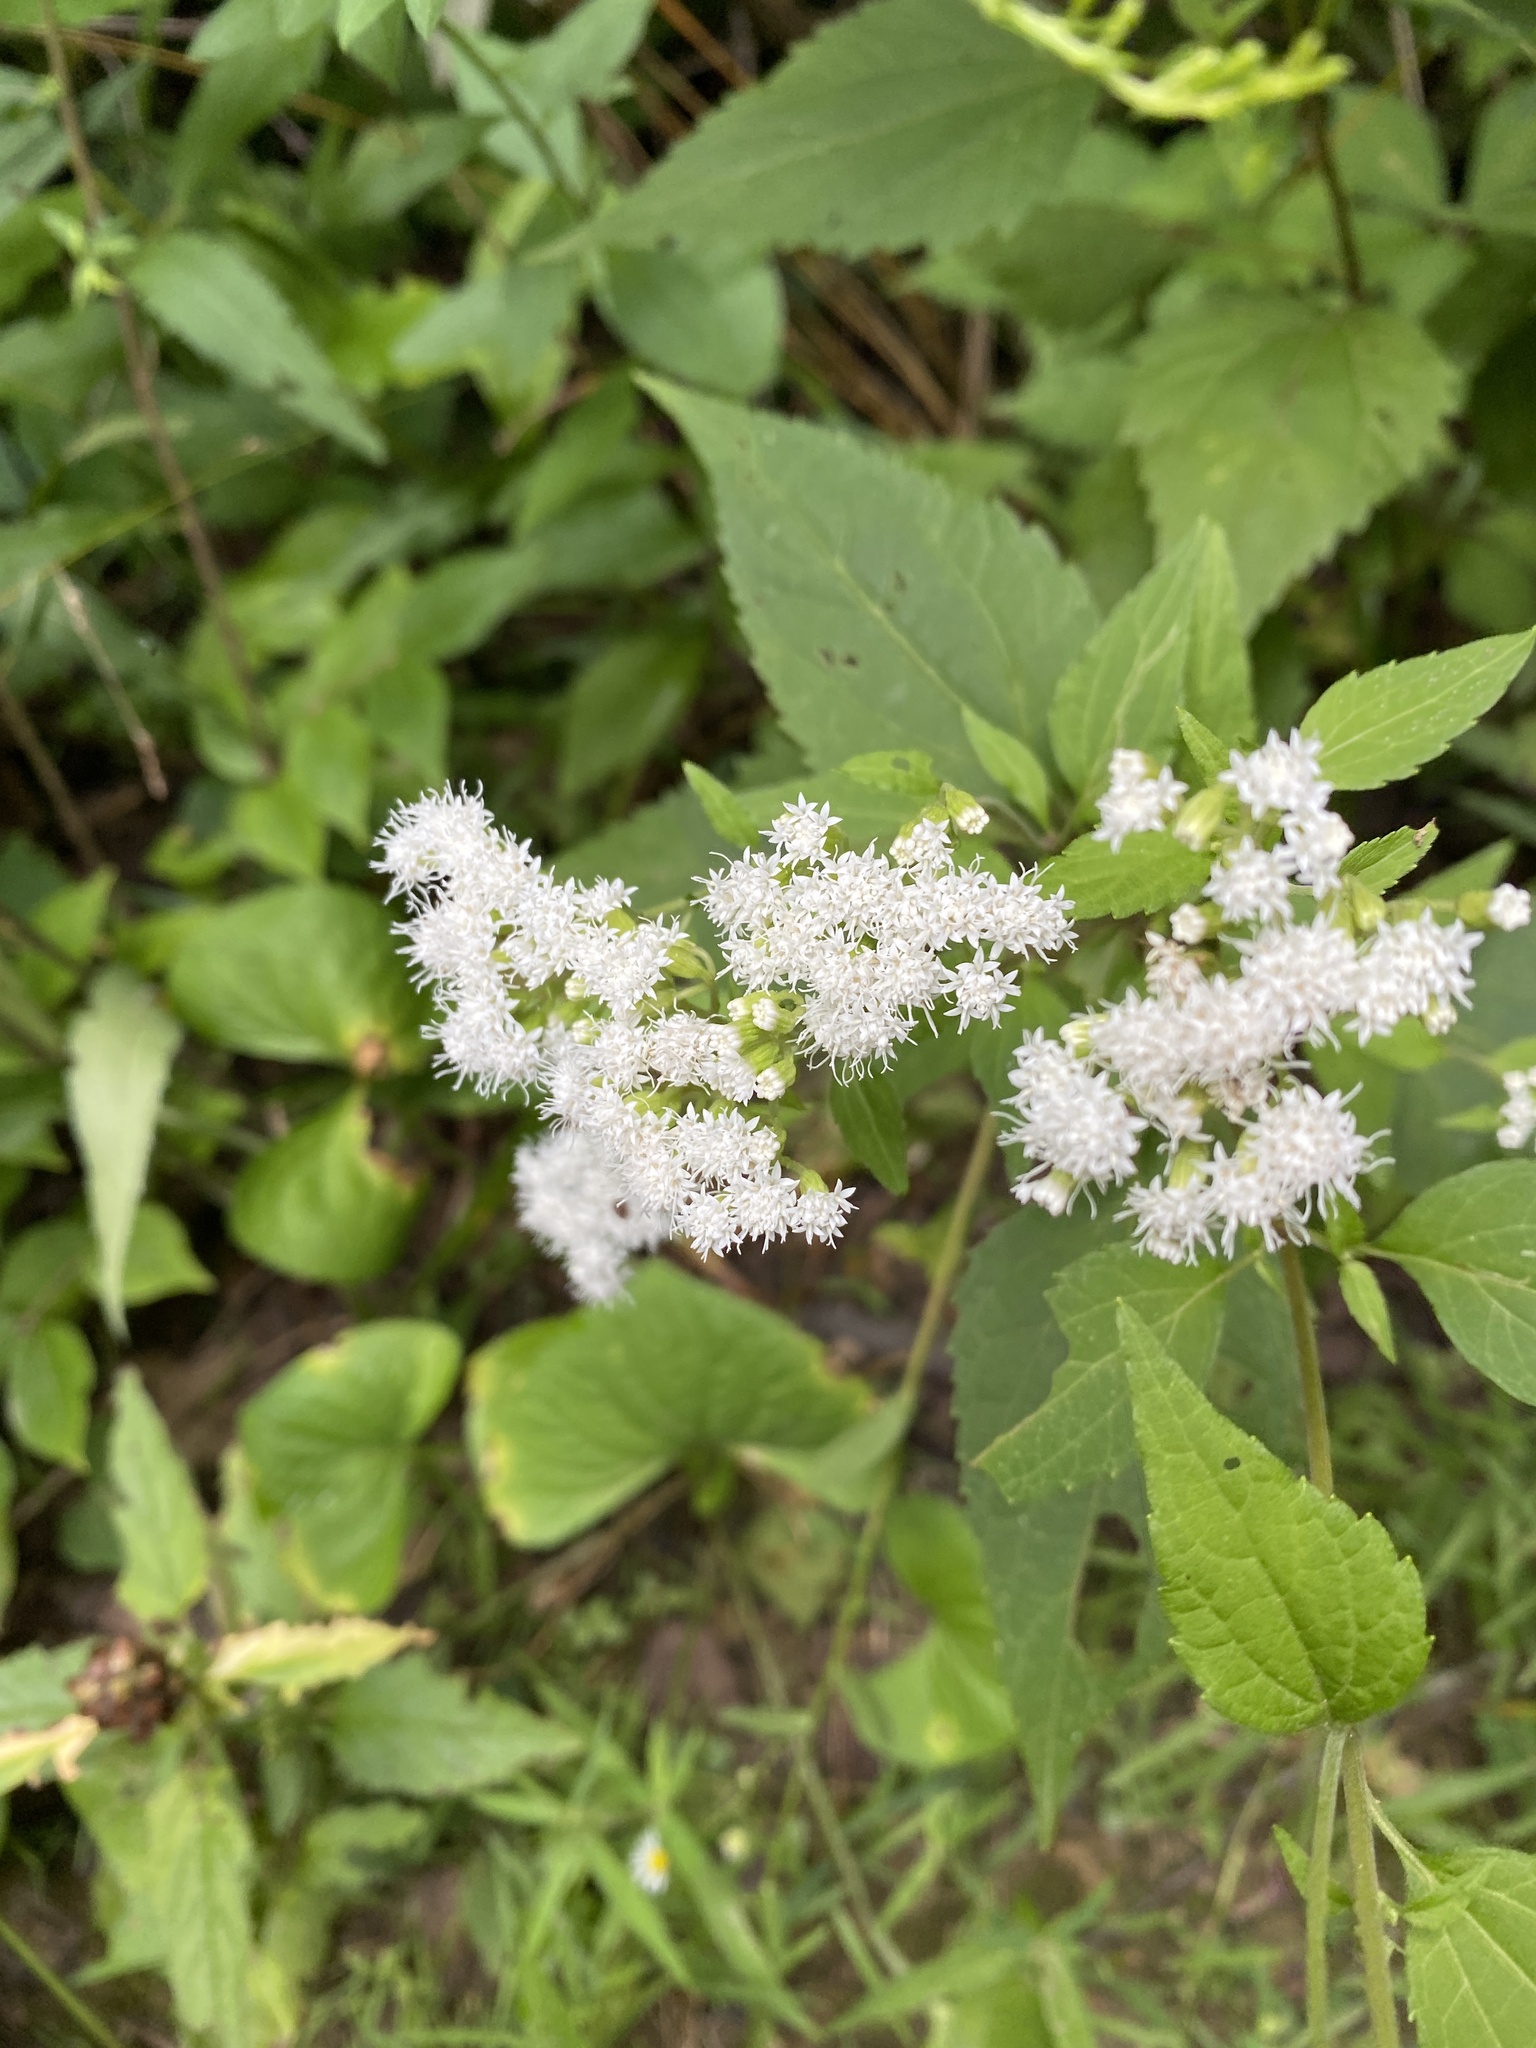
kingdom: Plantae
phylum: Tracheophyta
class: Magnoliopsida
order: Asterales
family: Asteraceae
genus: Ageratina
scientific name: Ageratina altissima
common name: White snakeroot
